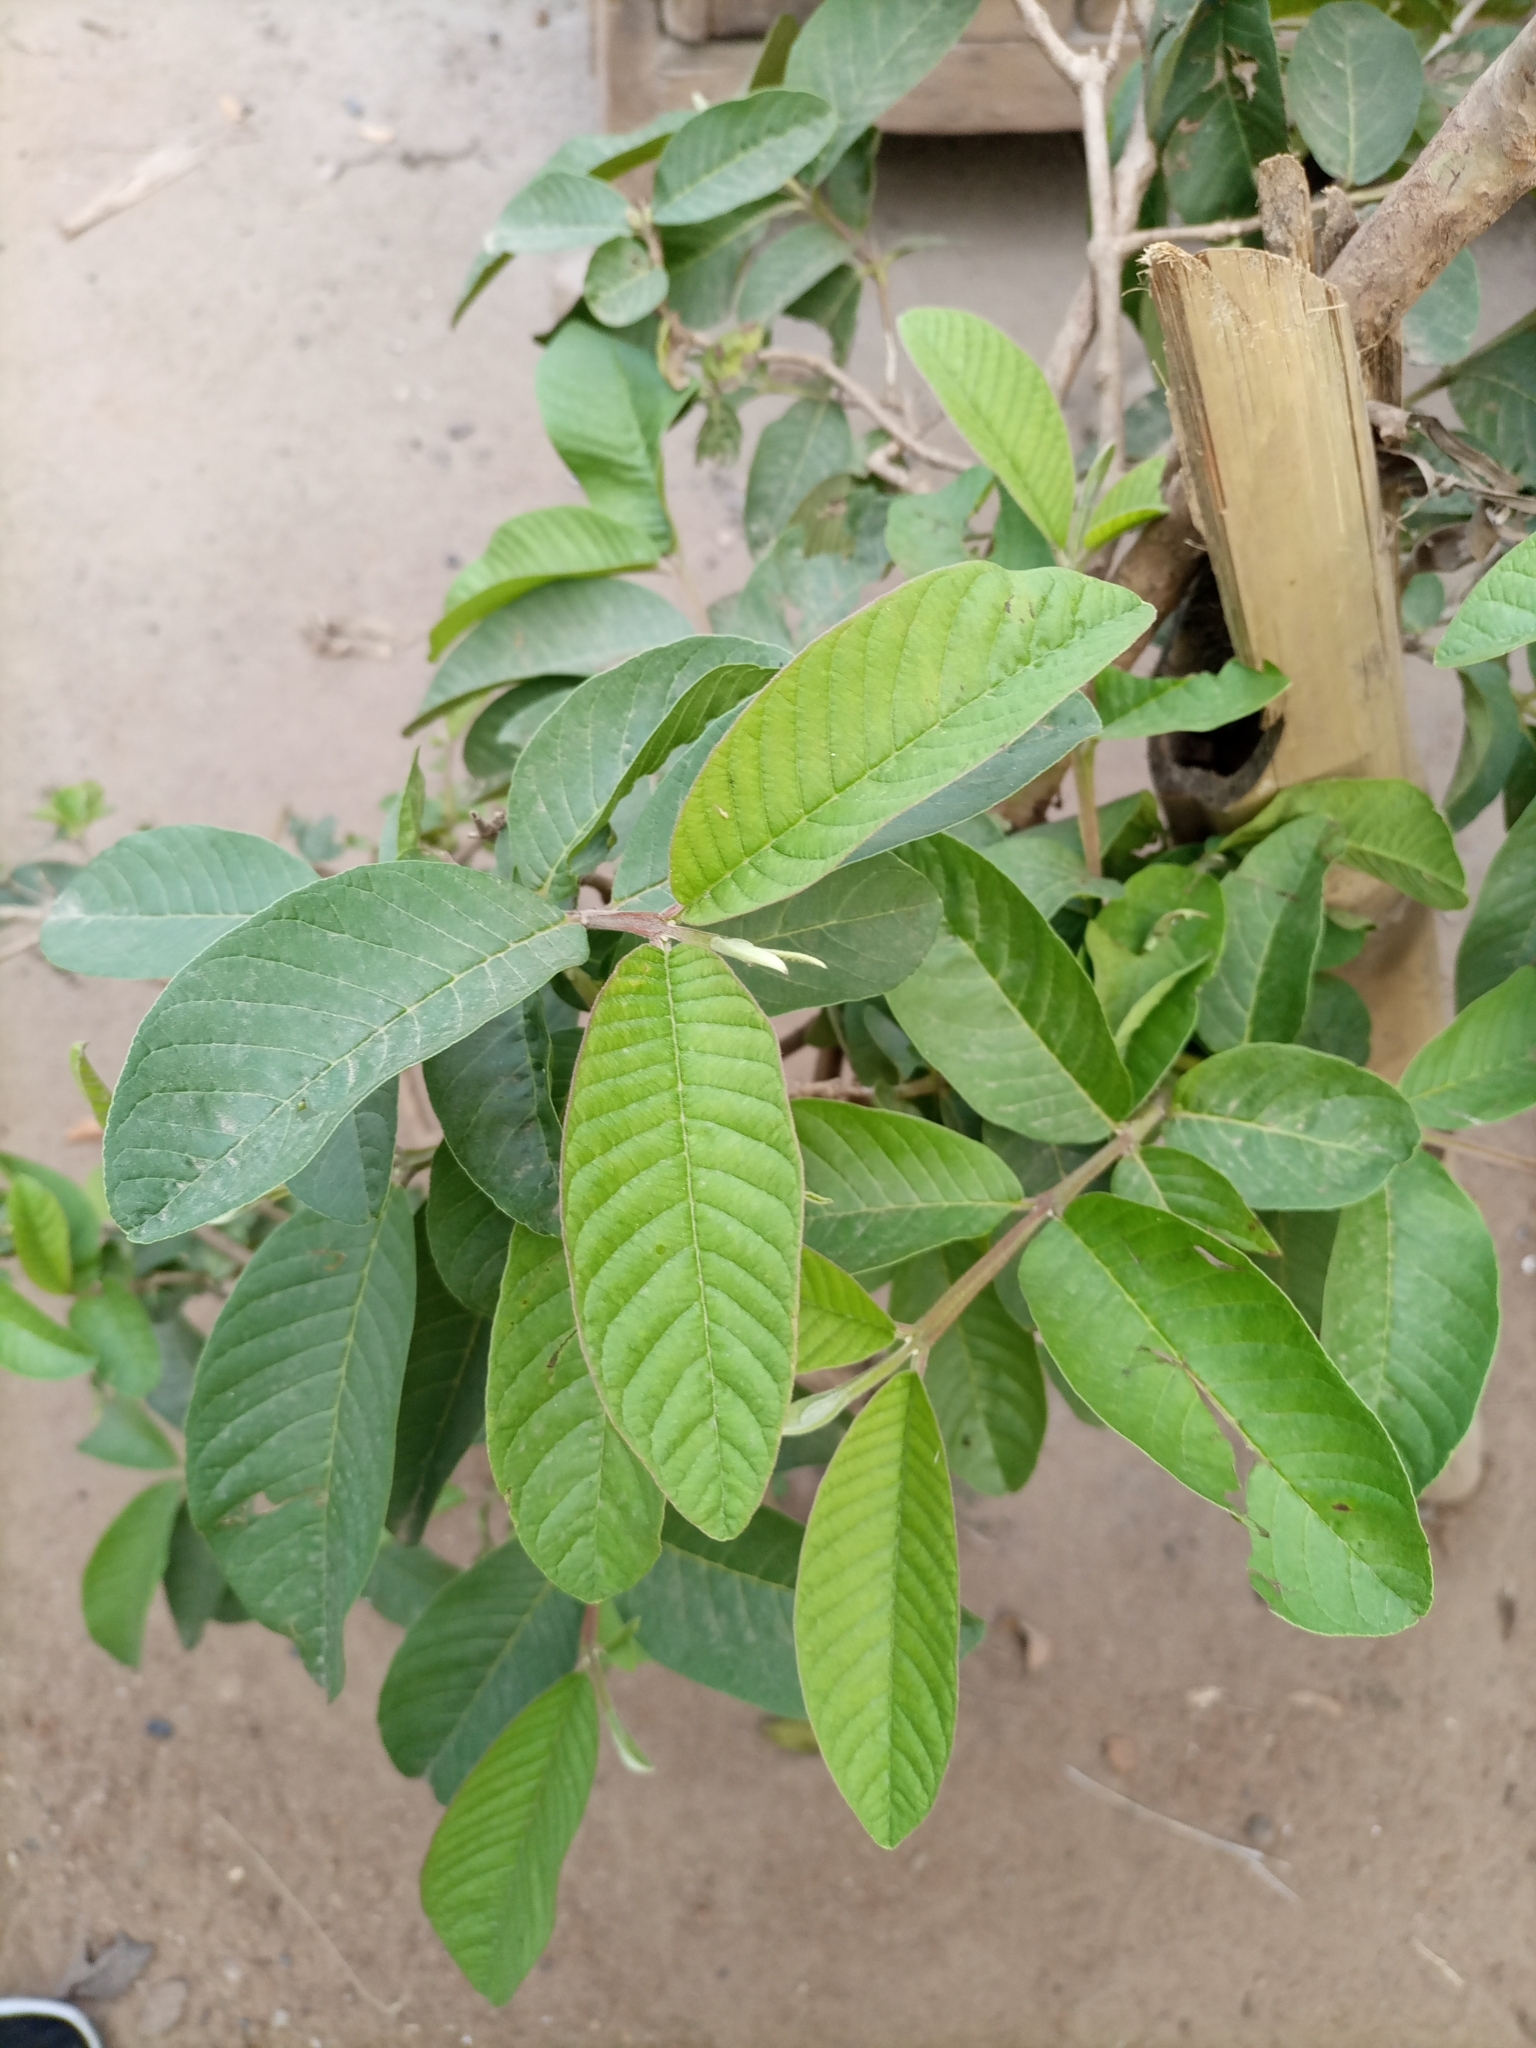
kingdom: Plantae
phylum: Tracheophyta
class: Magnoliopsida
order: Myrtales
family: Myrtaceae
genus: Psidium
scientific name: Psidium guajava
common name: Guava
